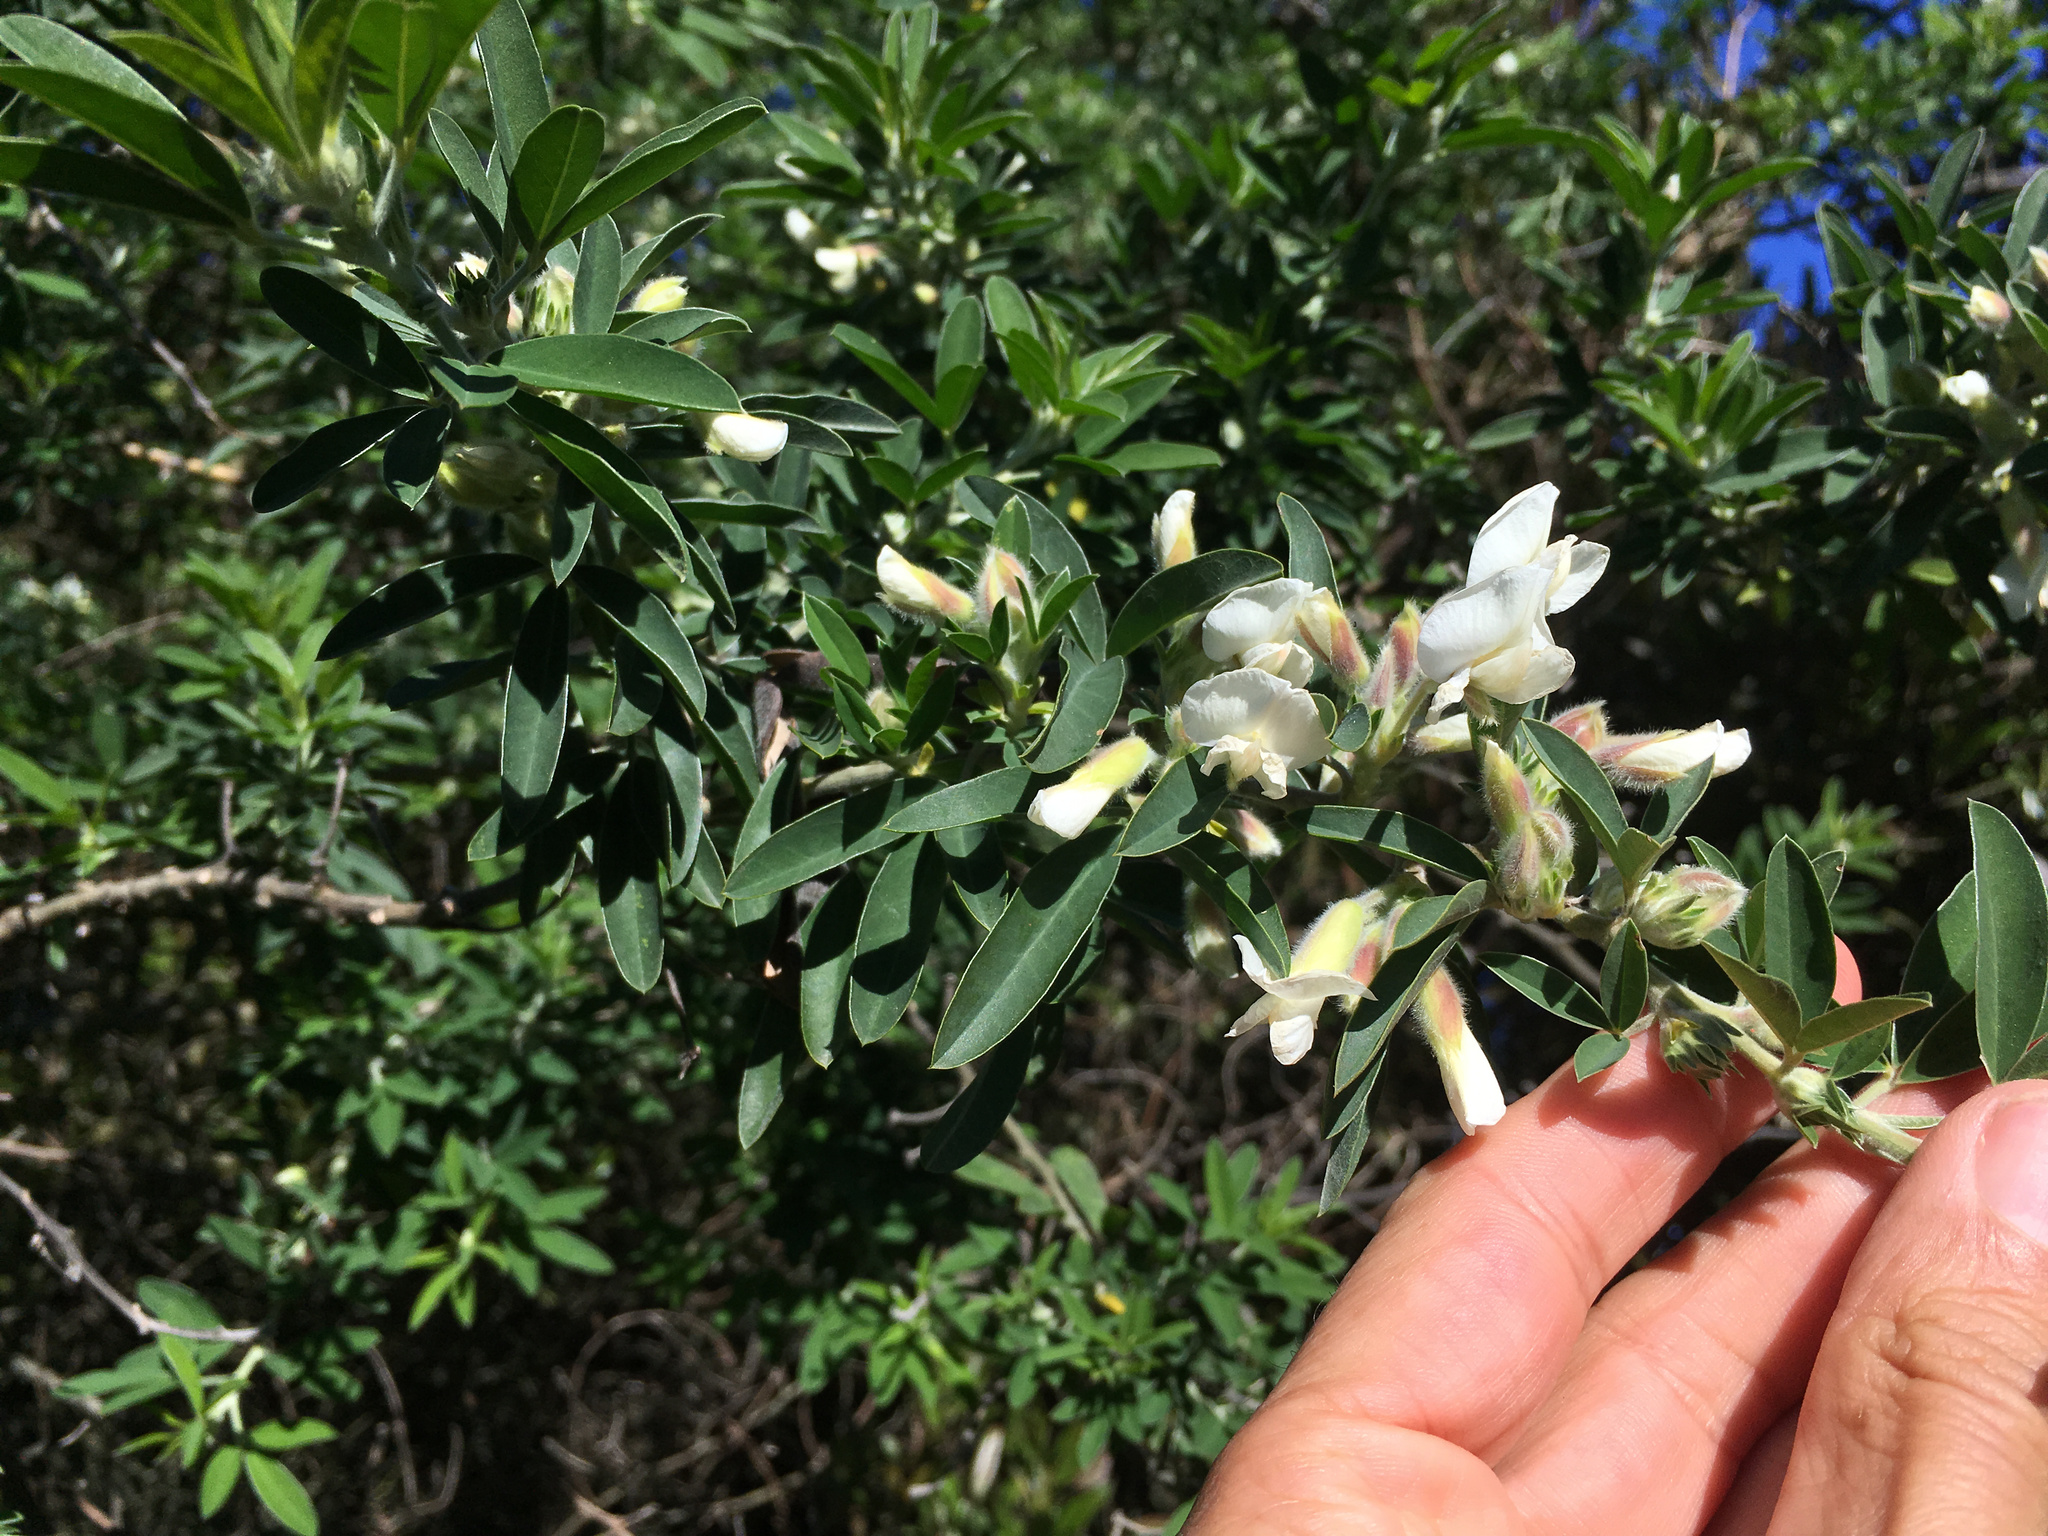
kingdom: Plantae
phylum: Tracheophyta
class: Magnoliopsida
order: Fabales
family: Fabaceae
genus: Chamaecytisus
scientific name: Chamaecytisus prolifer
